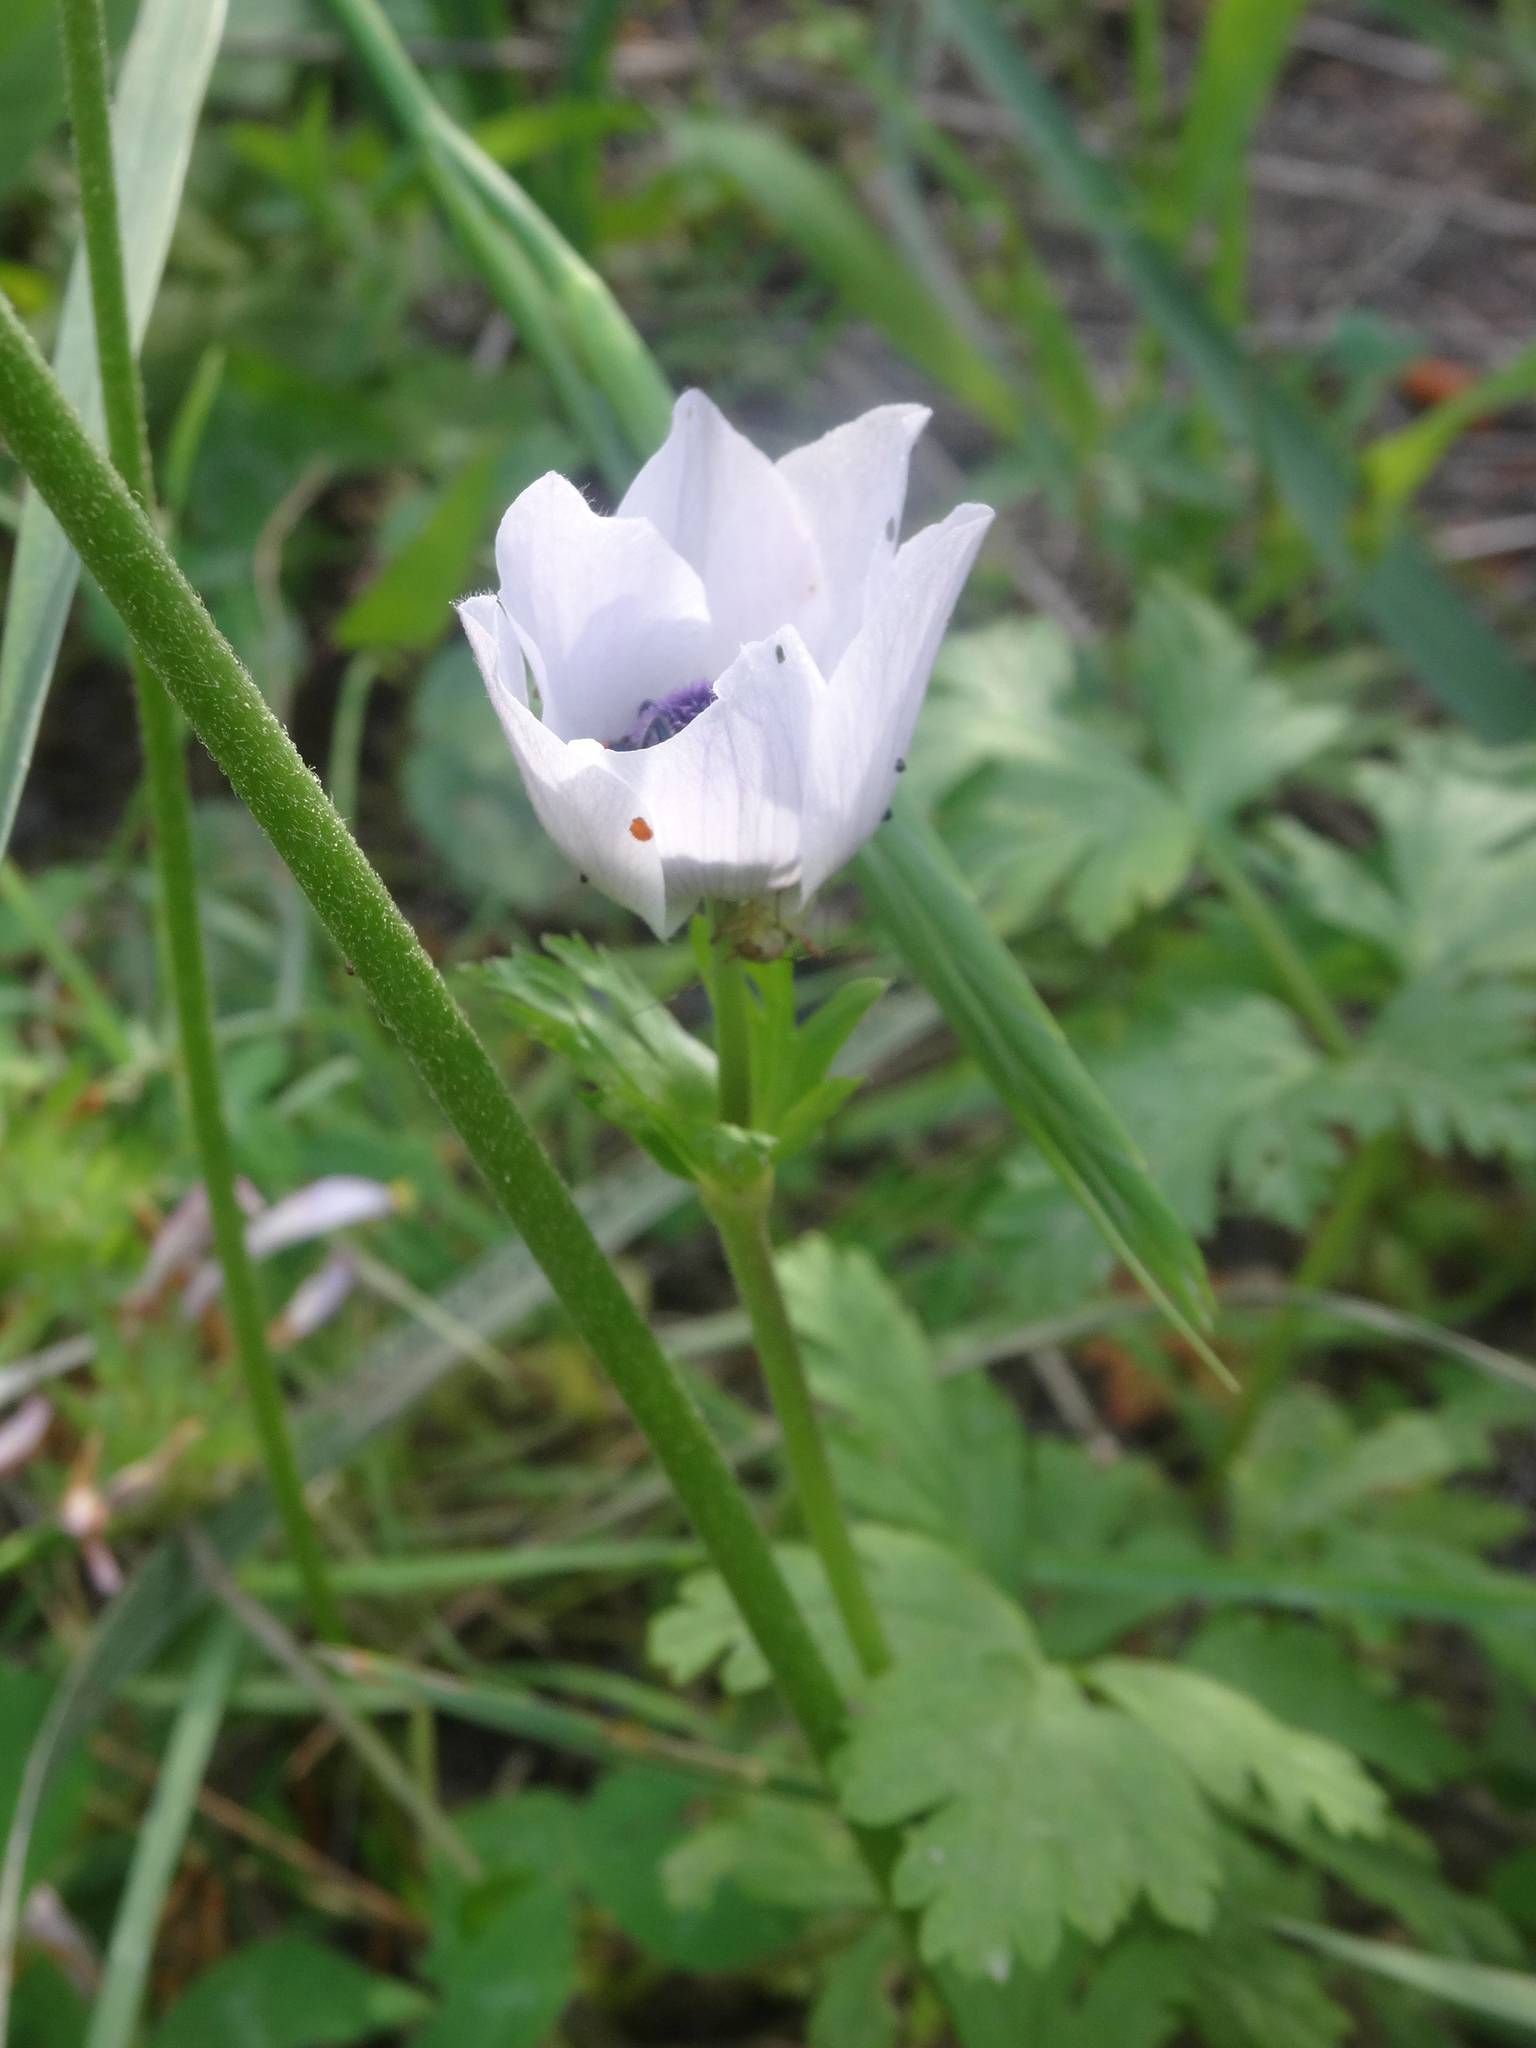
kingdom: Plantae
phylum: Tracheophyta
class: Magnoliopsida
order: Ranunculales
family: Ranunculaceae
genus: Anemone
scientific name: Anemone coronaria
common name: Poppy anemone
